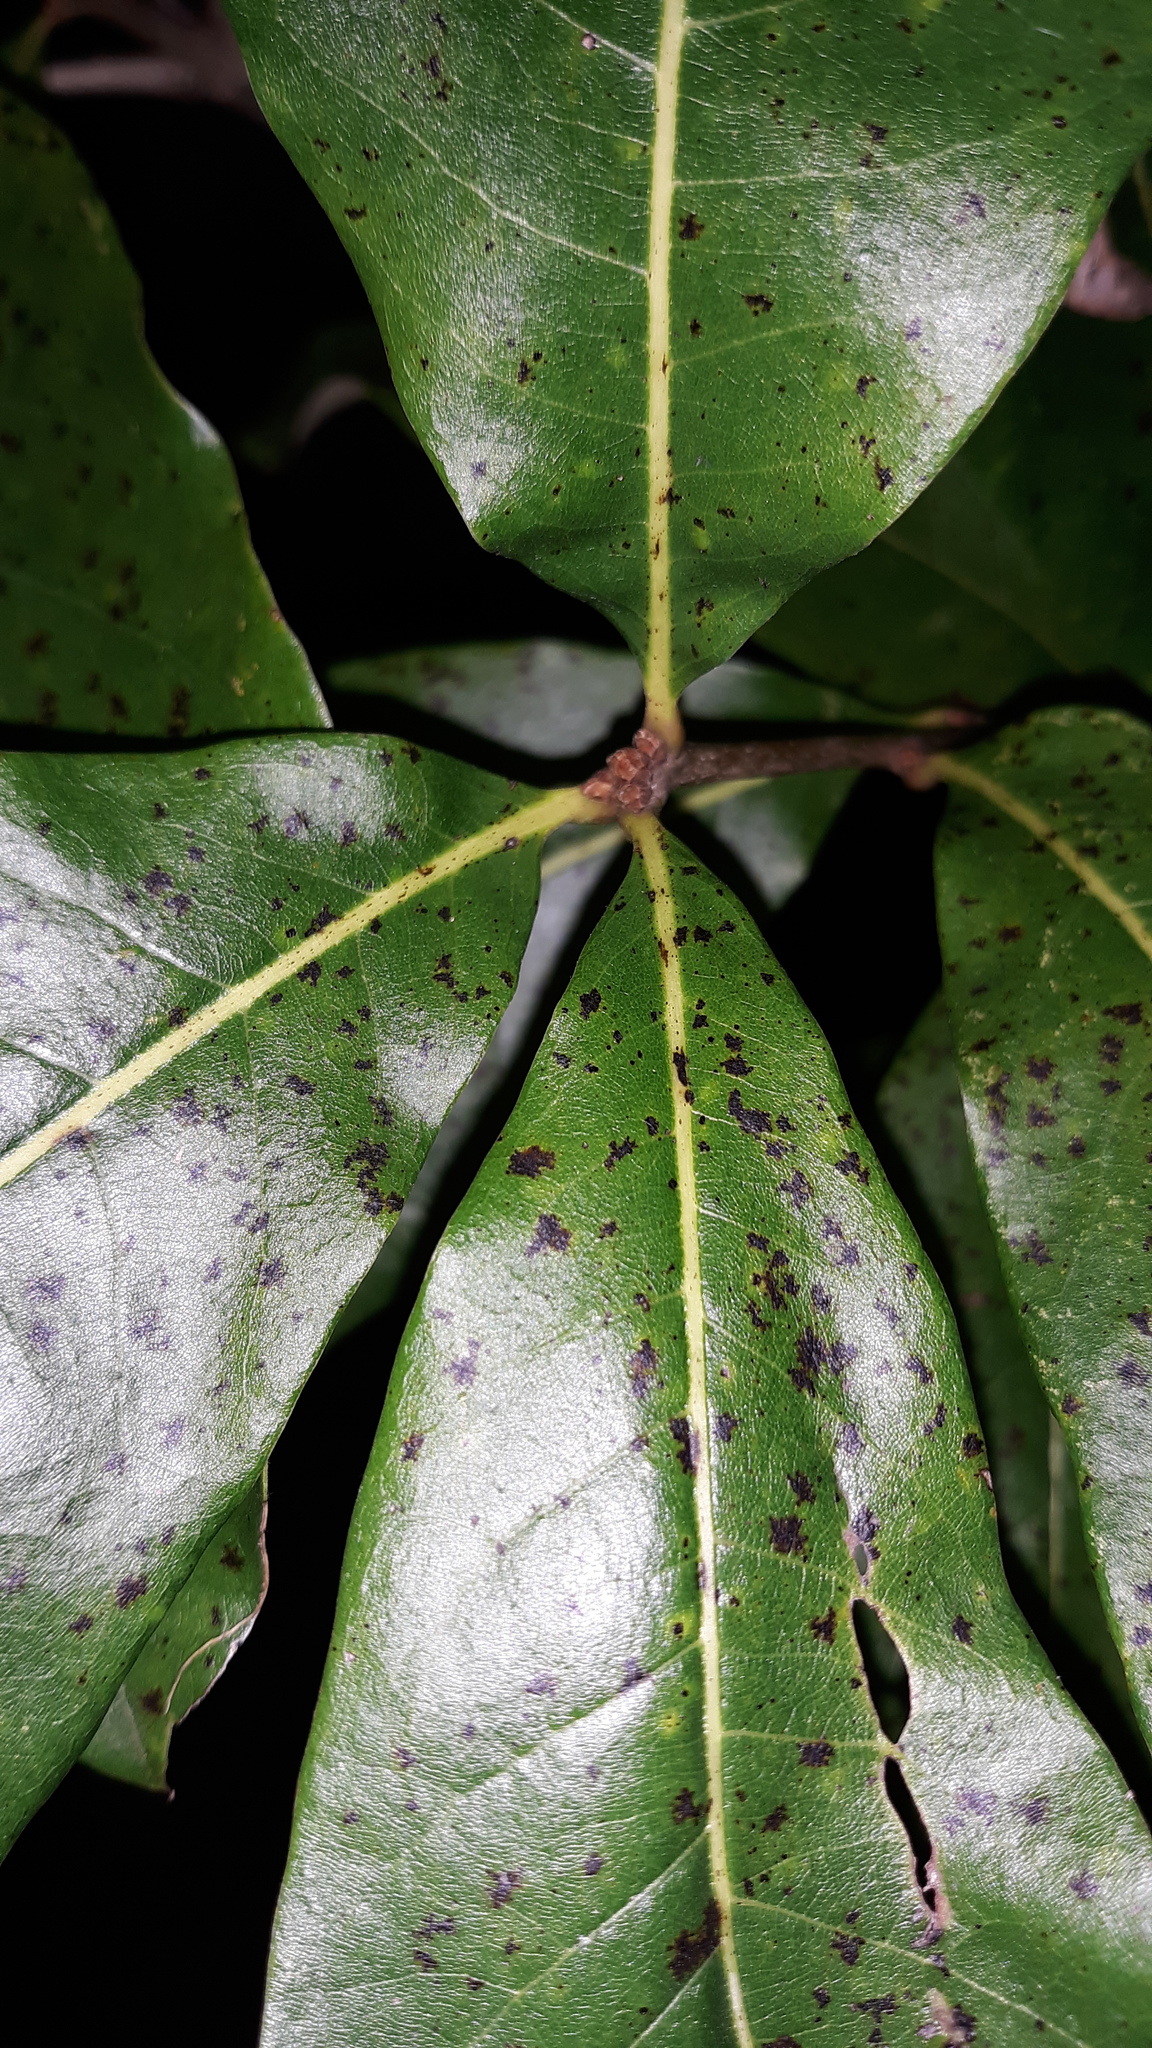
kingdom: Plantae
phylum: Tracheophyta
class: Magnoliopsida
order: Fagales
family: Fagaceae
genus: Quercus
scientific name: Quercus imbricaria
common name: Shingle oak
